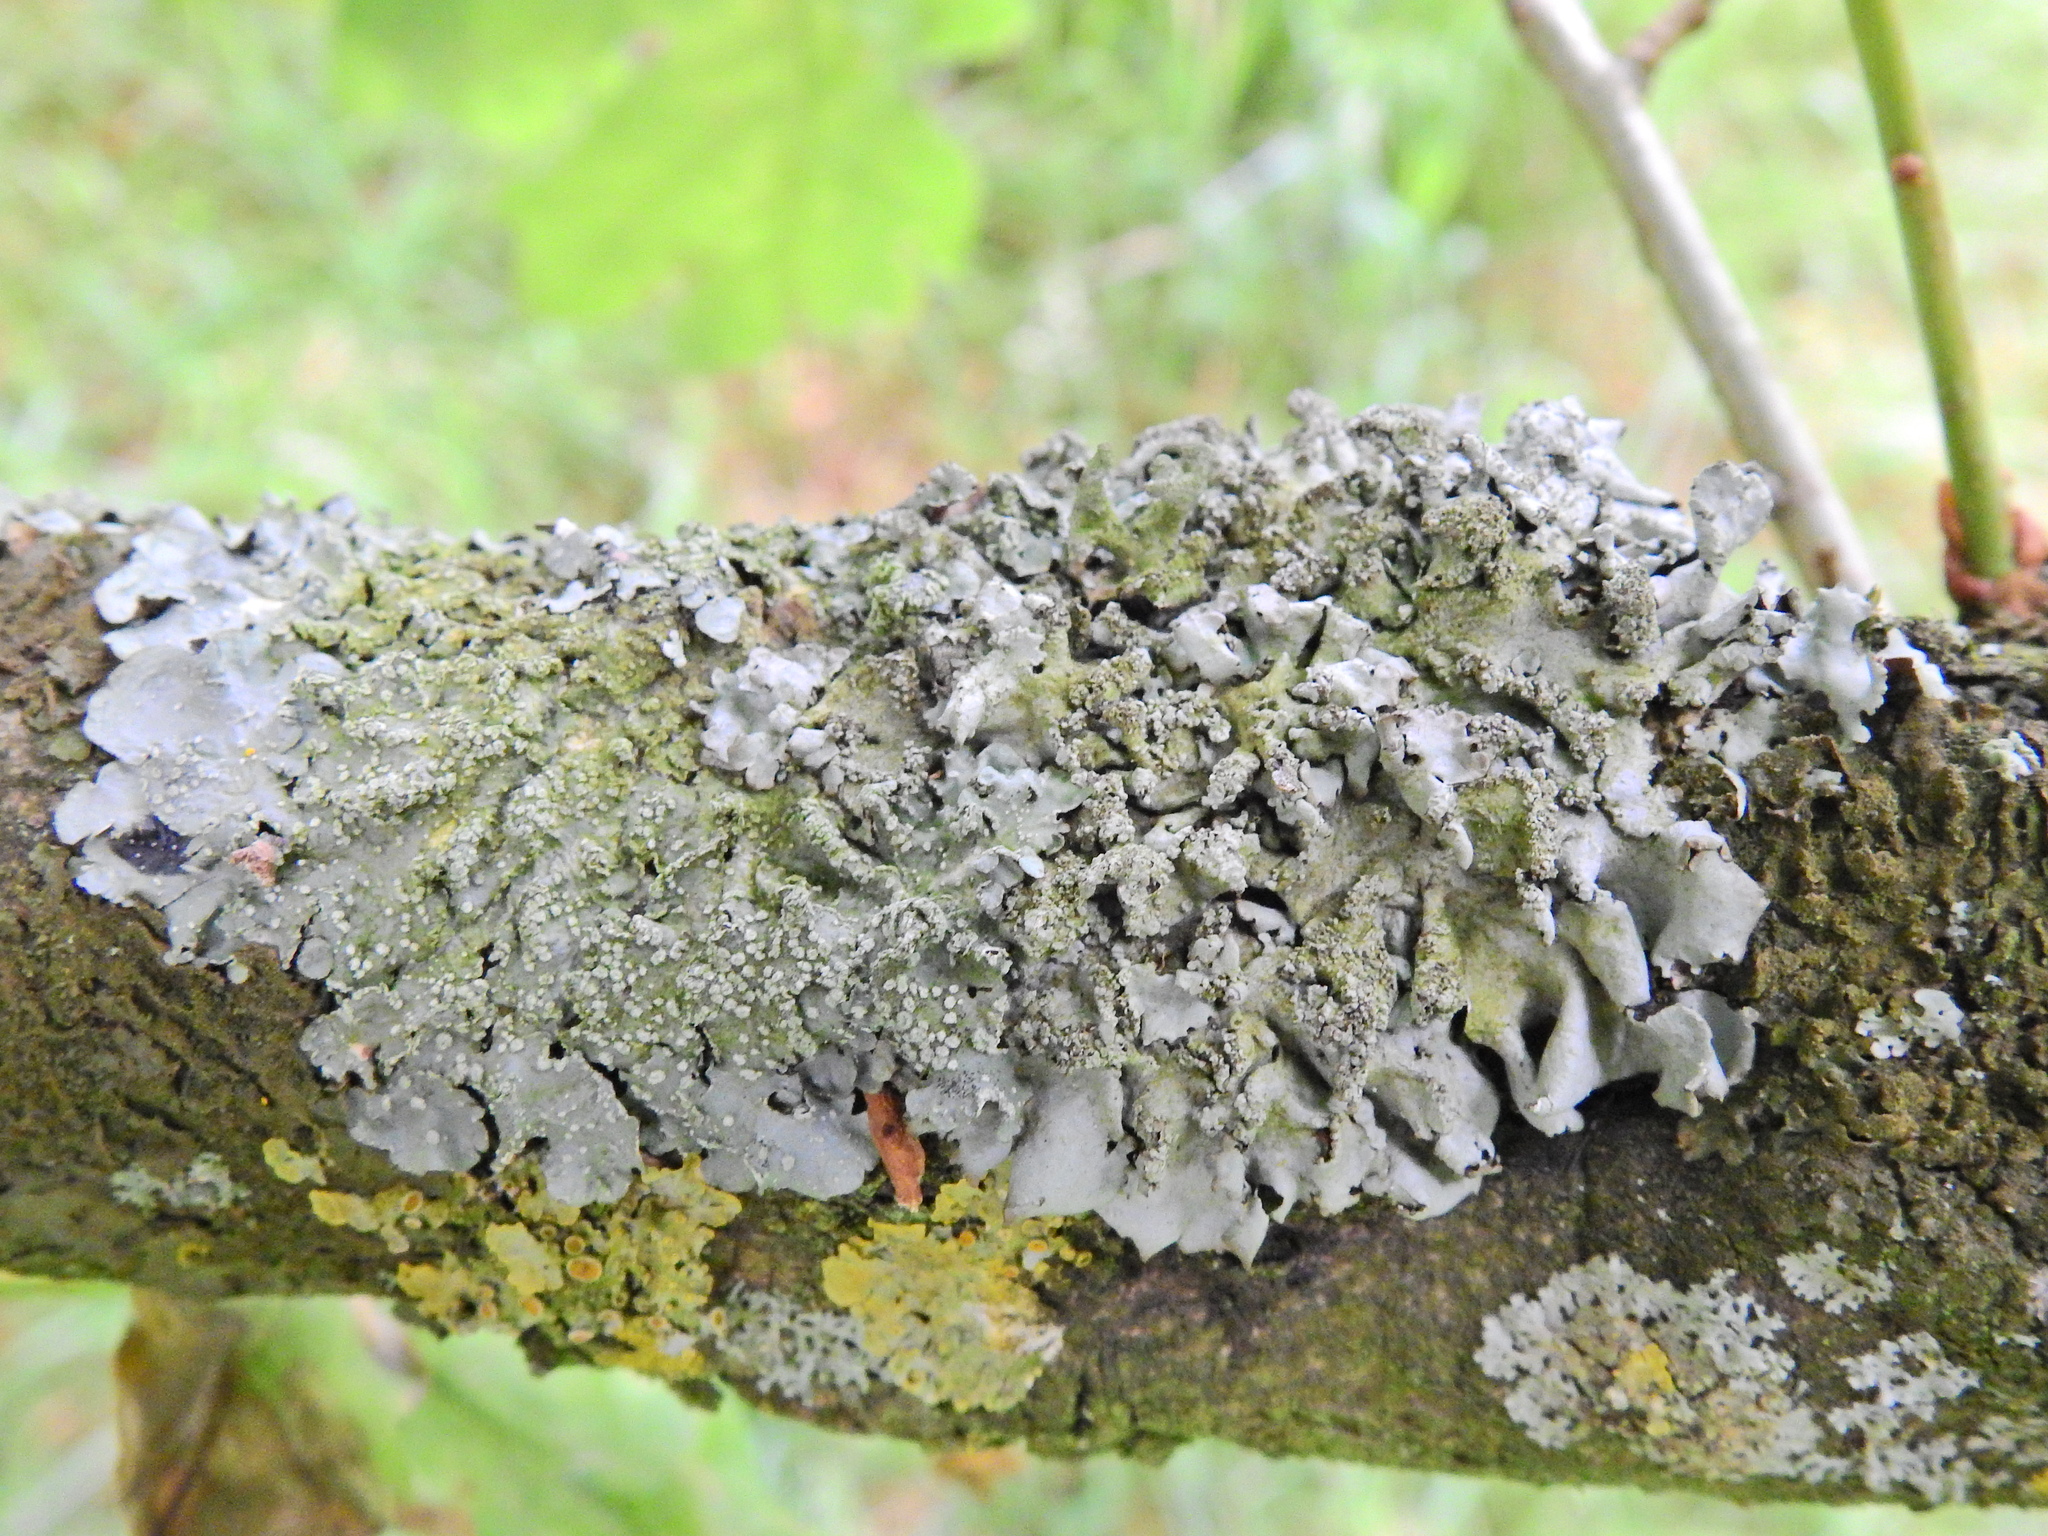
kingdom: Fungi
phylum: Ascomycota
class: Lecanoromycetes
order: Lecanorales
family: Parmeliaceae
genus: Hypotrachyna
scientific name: Hypotrachyna afrorevoluta
